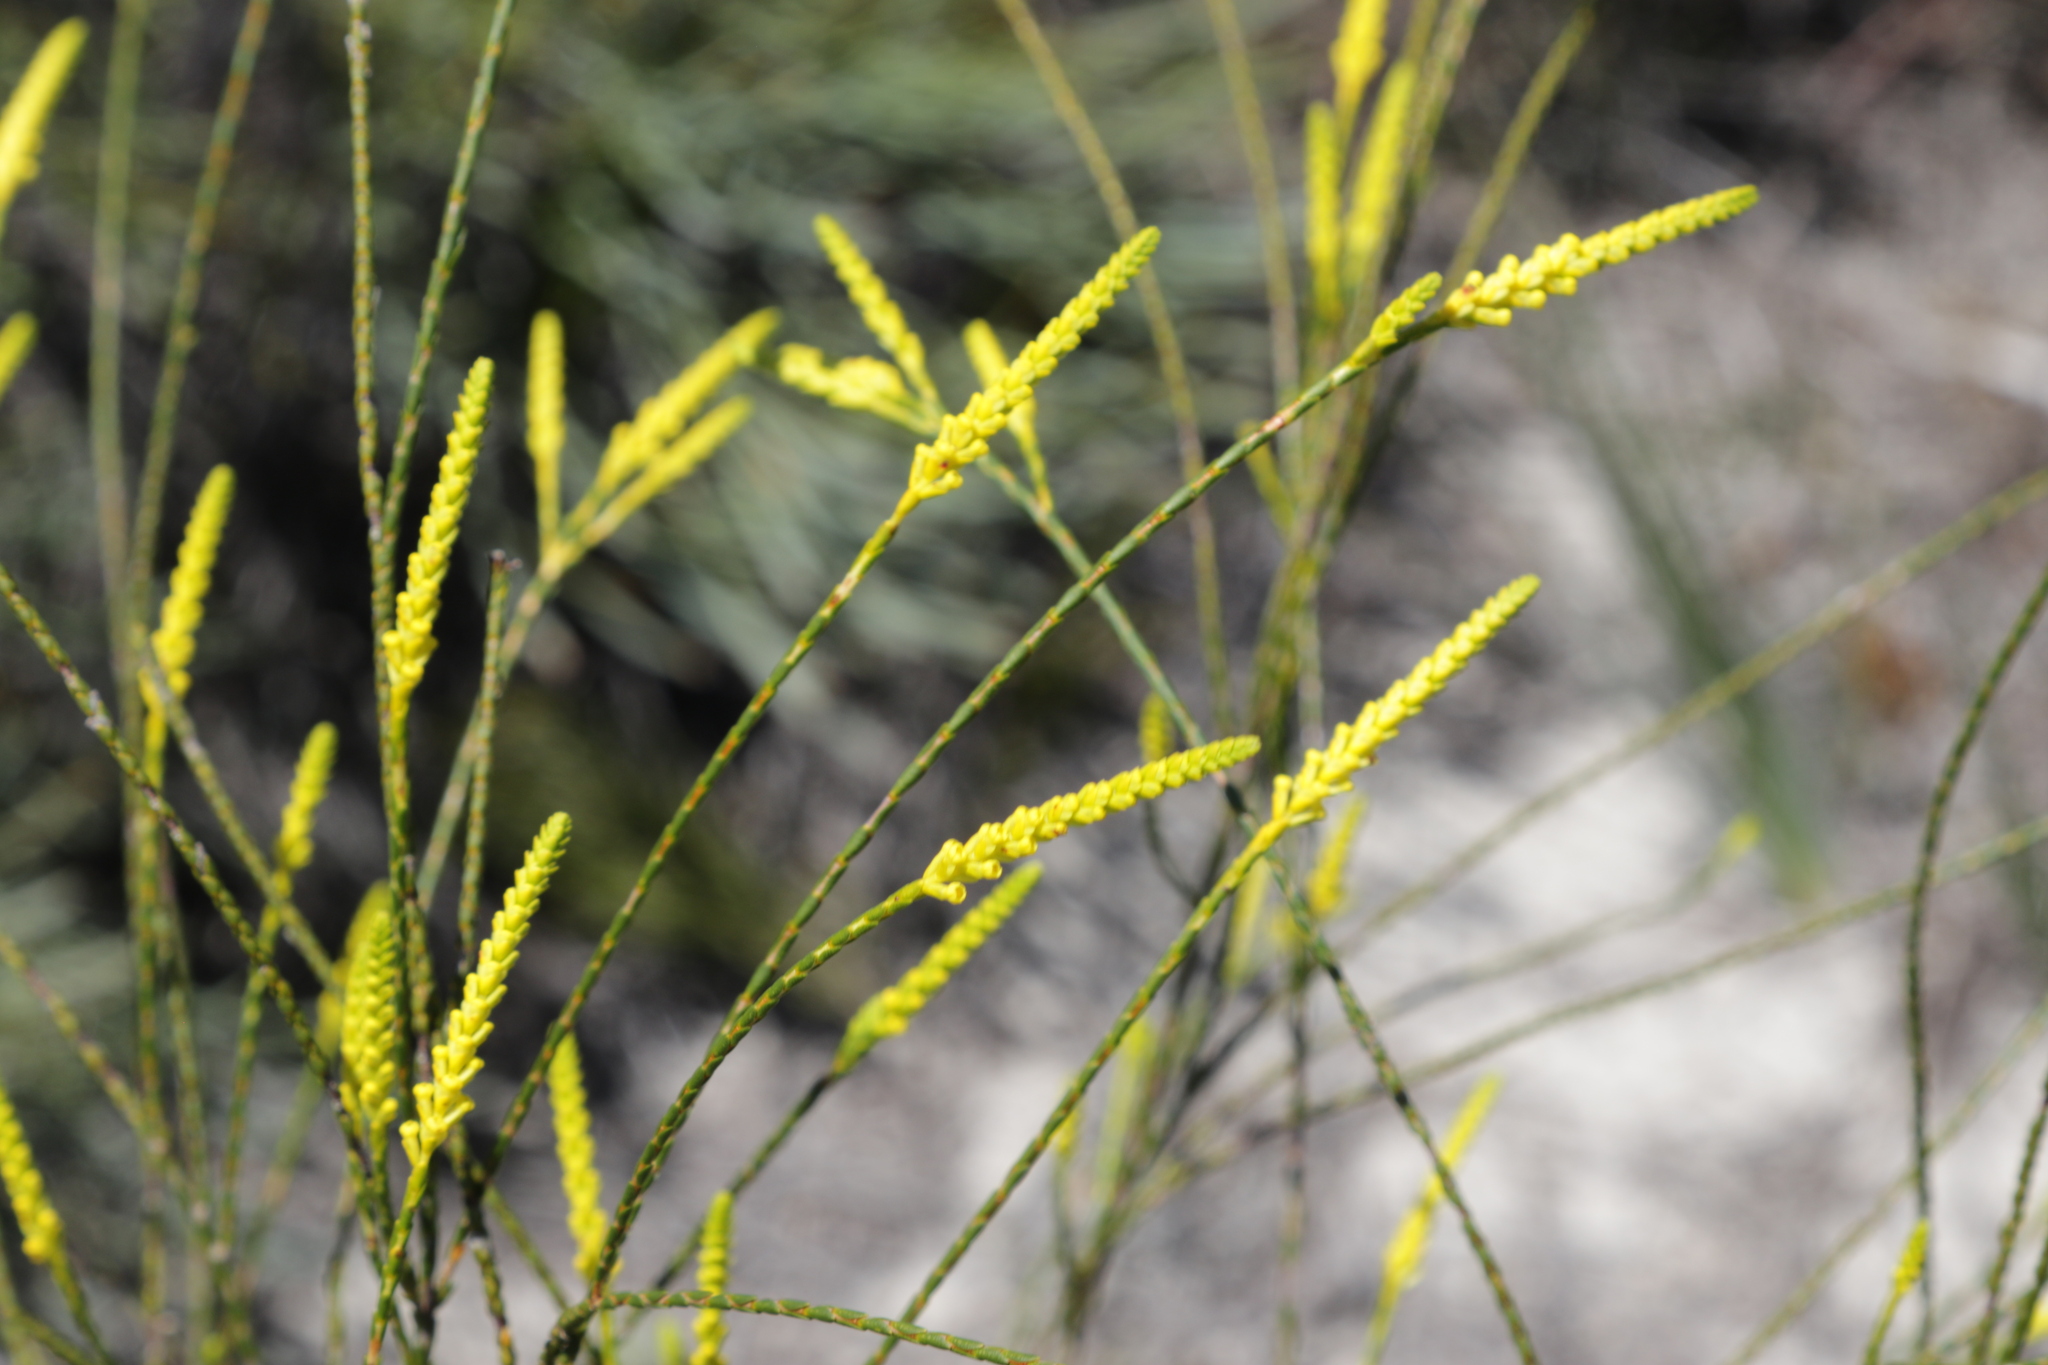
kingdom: Plantae
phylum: Tracheophyta
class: Magnoliopsida
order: Myrtales
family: Myrtaceae
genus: Micromyrtus
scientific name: Micromyrtus flava
